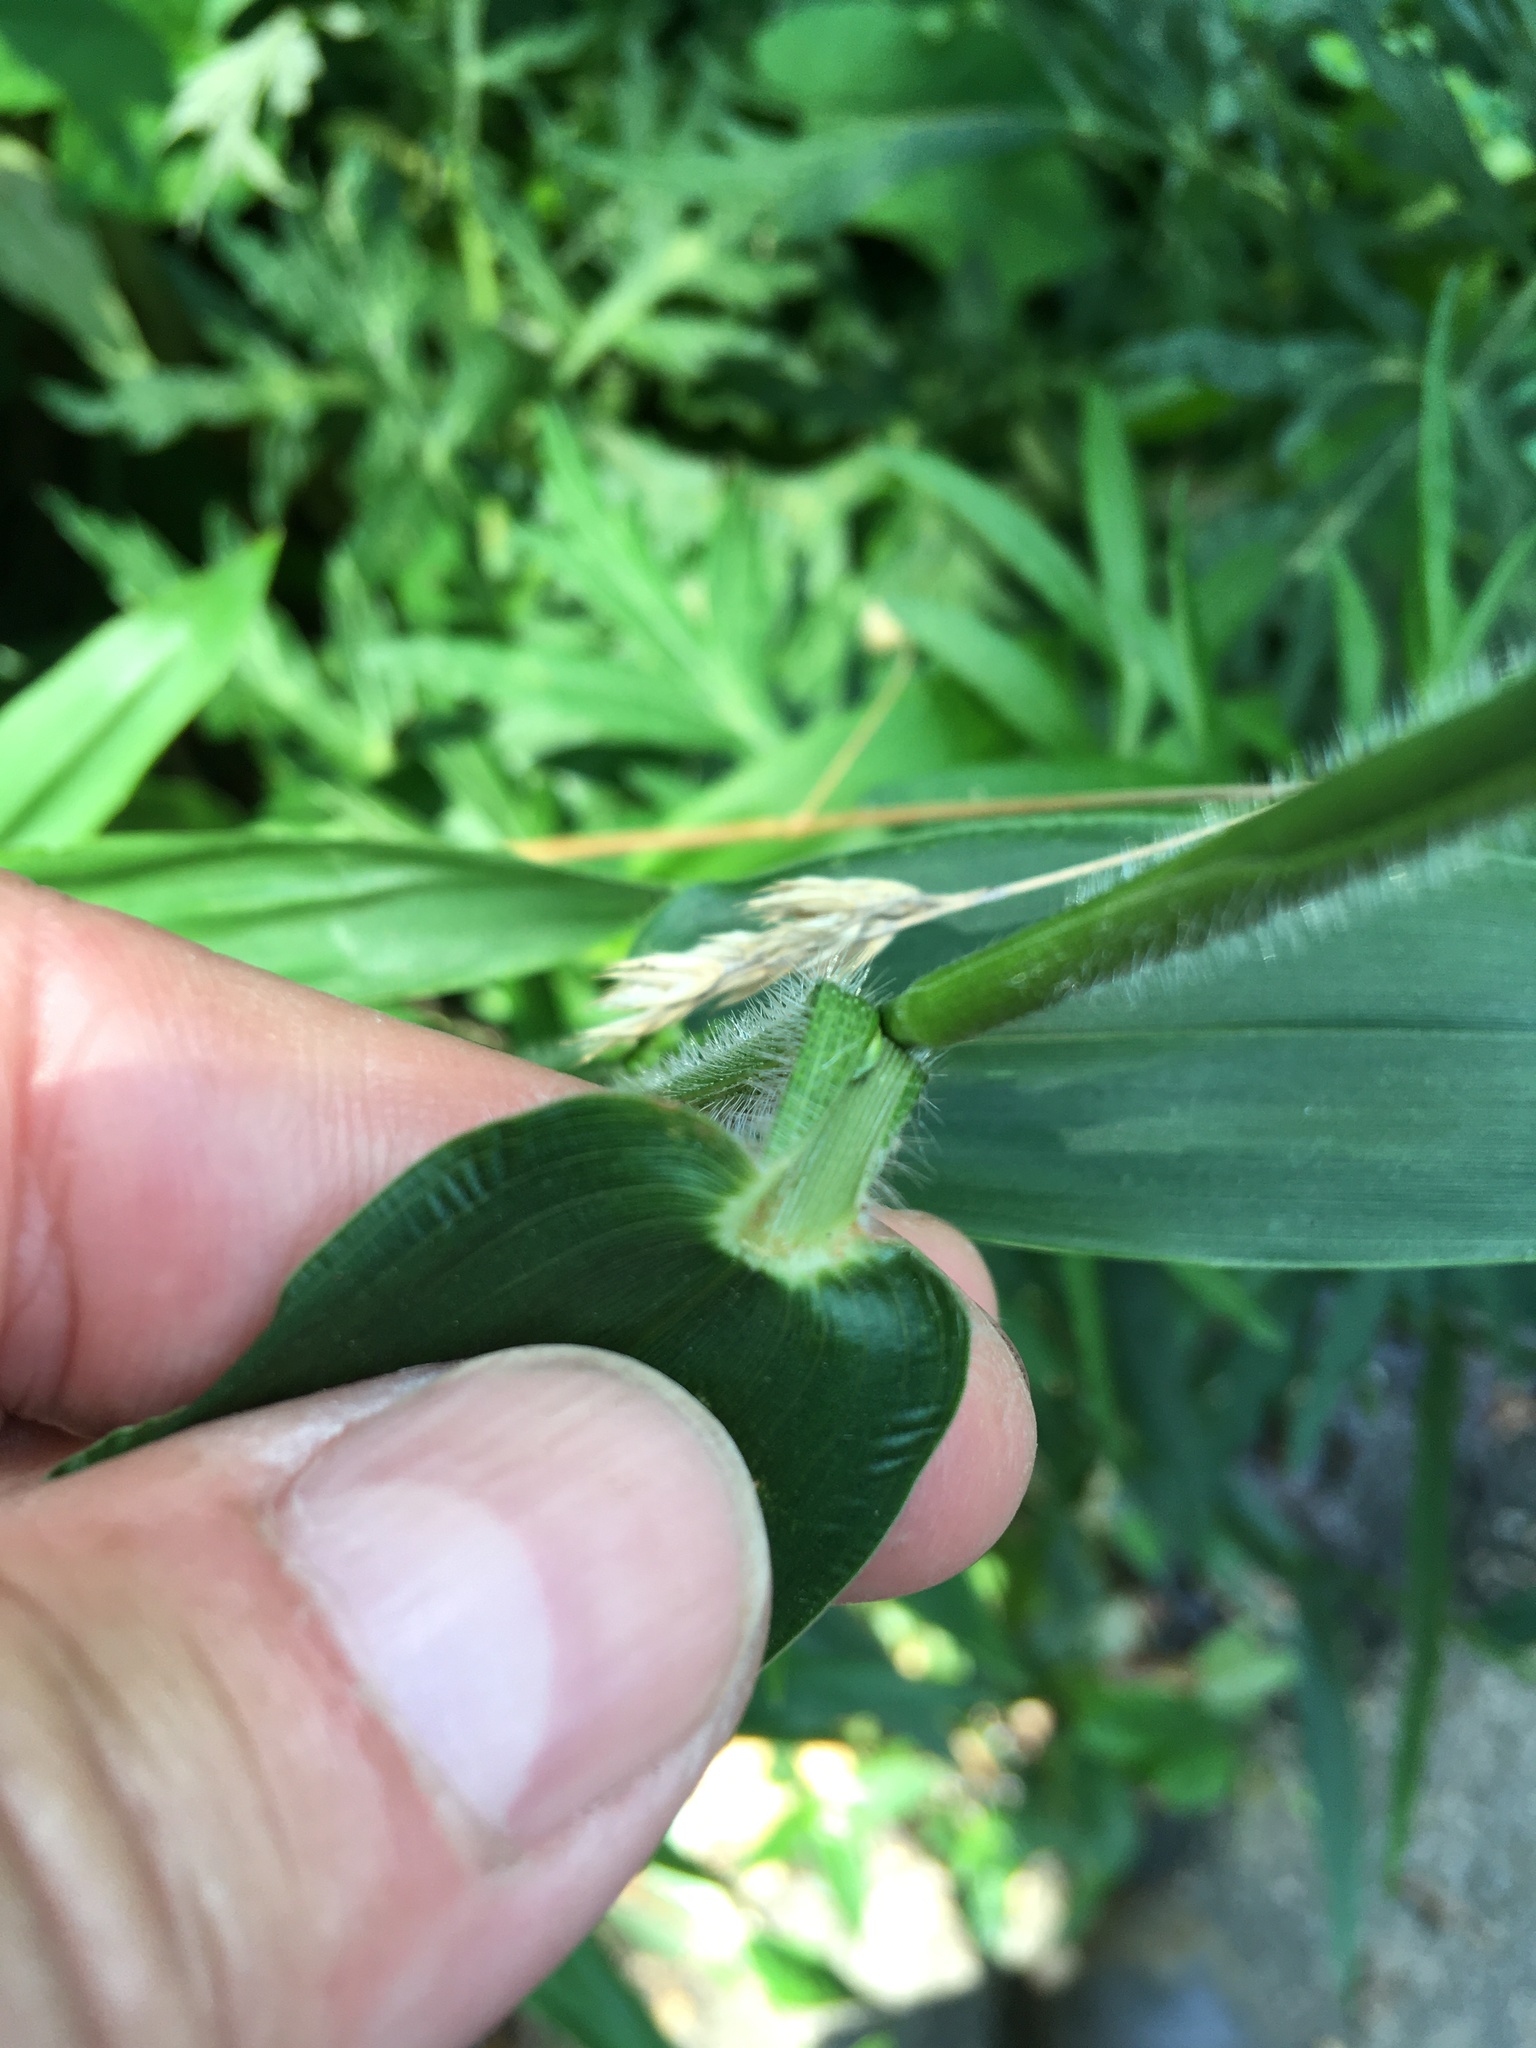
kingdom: Plantae
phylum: Tracheophyta
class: Liliopsida
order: Poales
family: Poaceae
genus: Dichanthelium
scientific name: Dichanthelium clandestinum
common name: Deer-tongue grass
